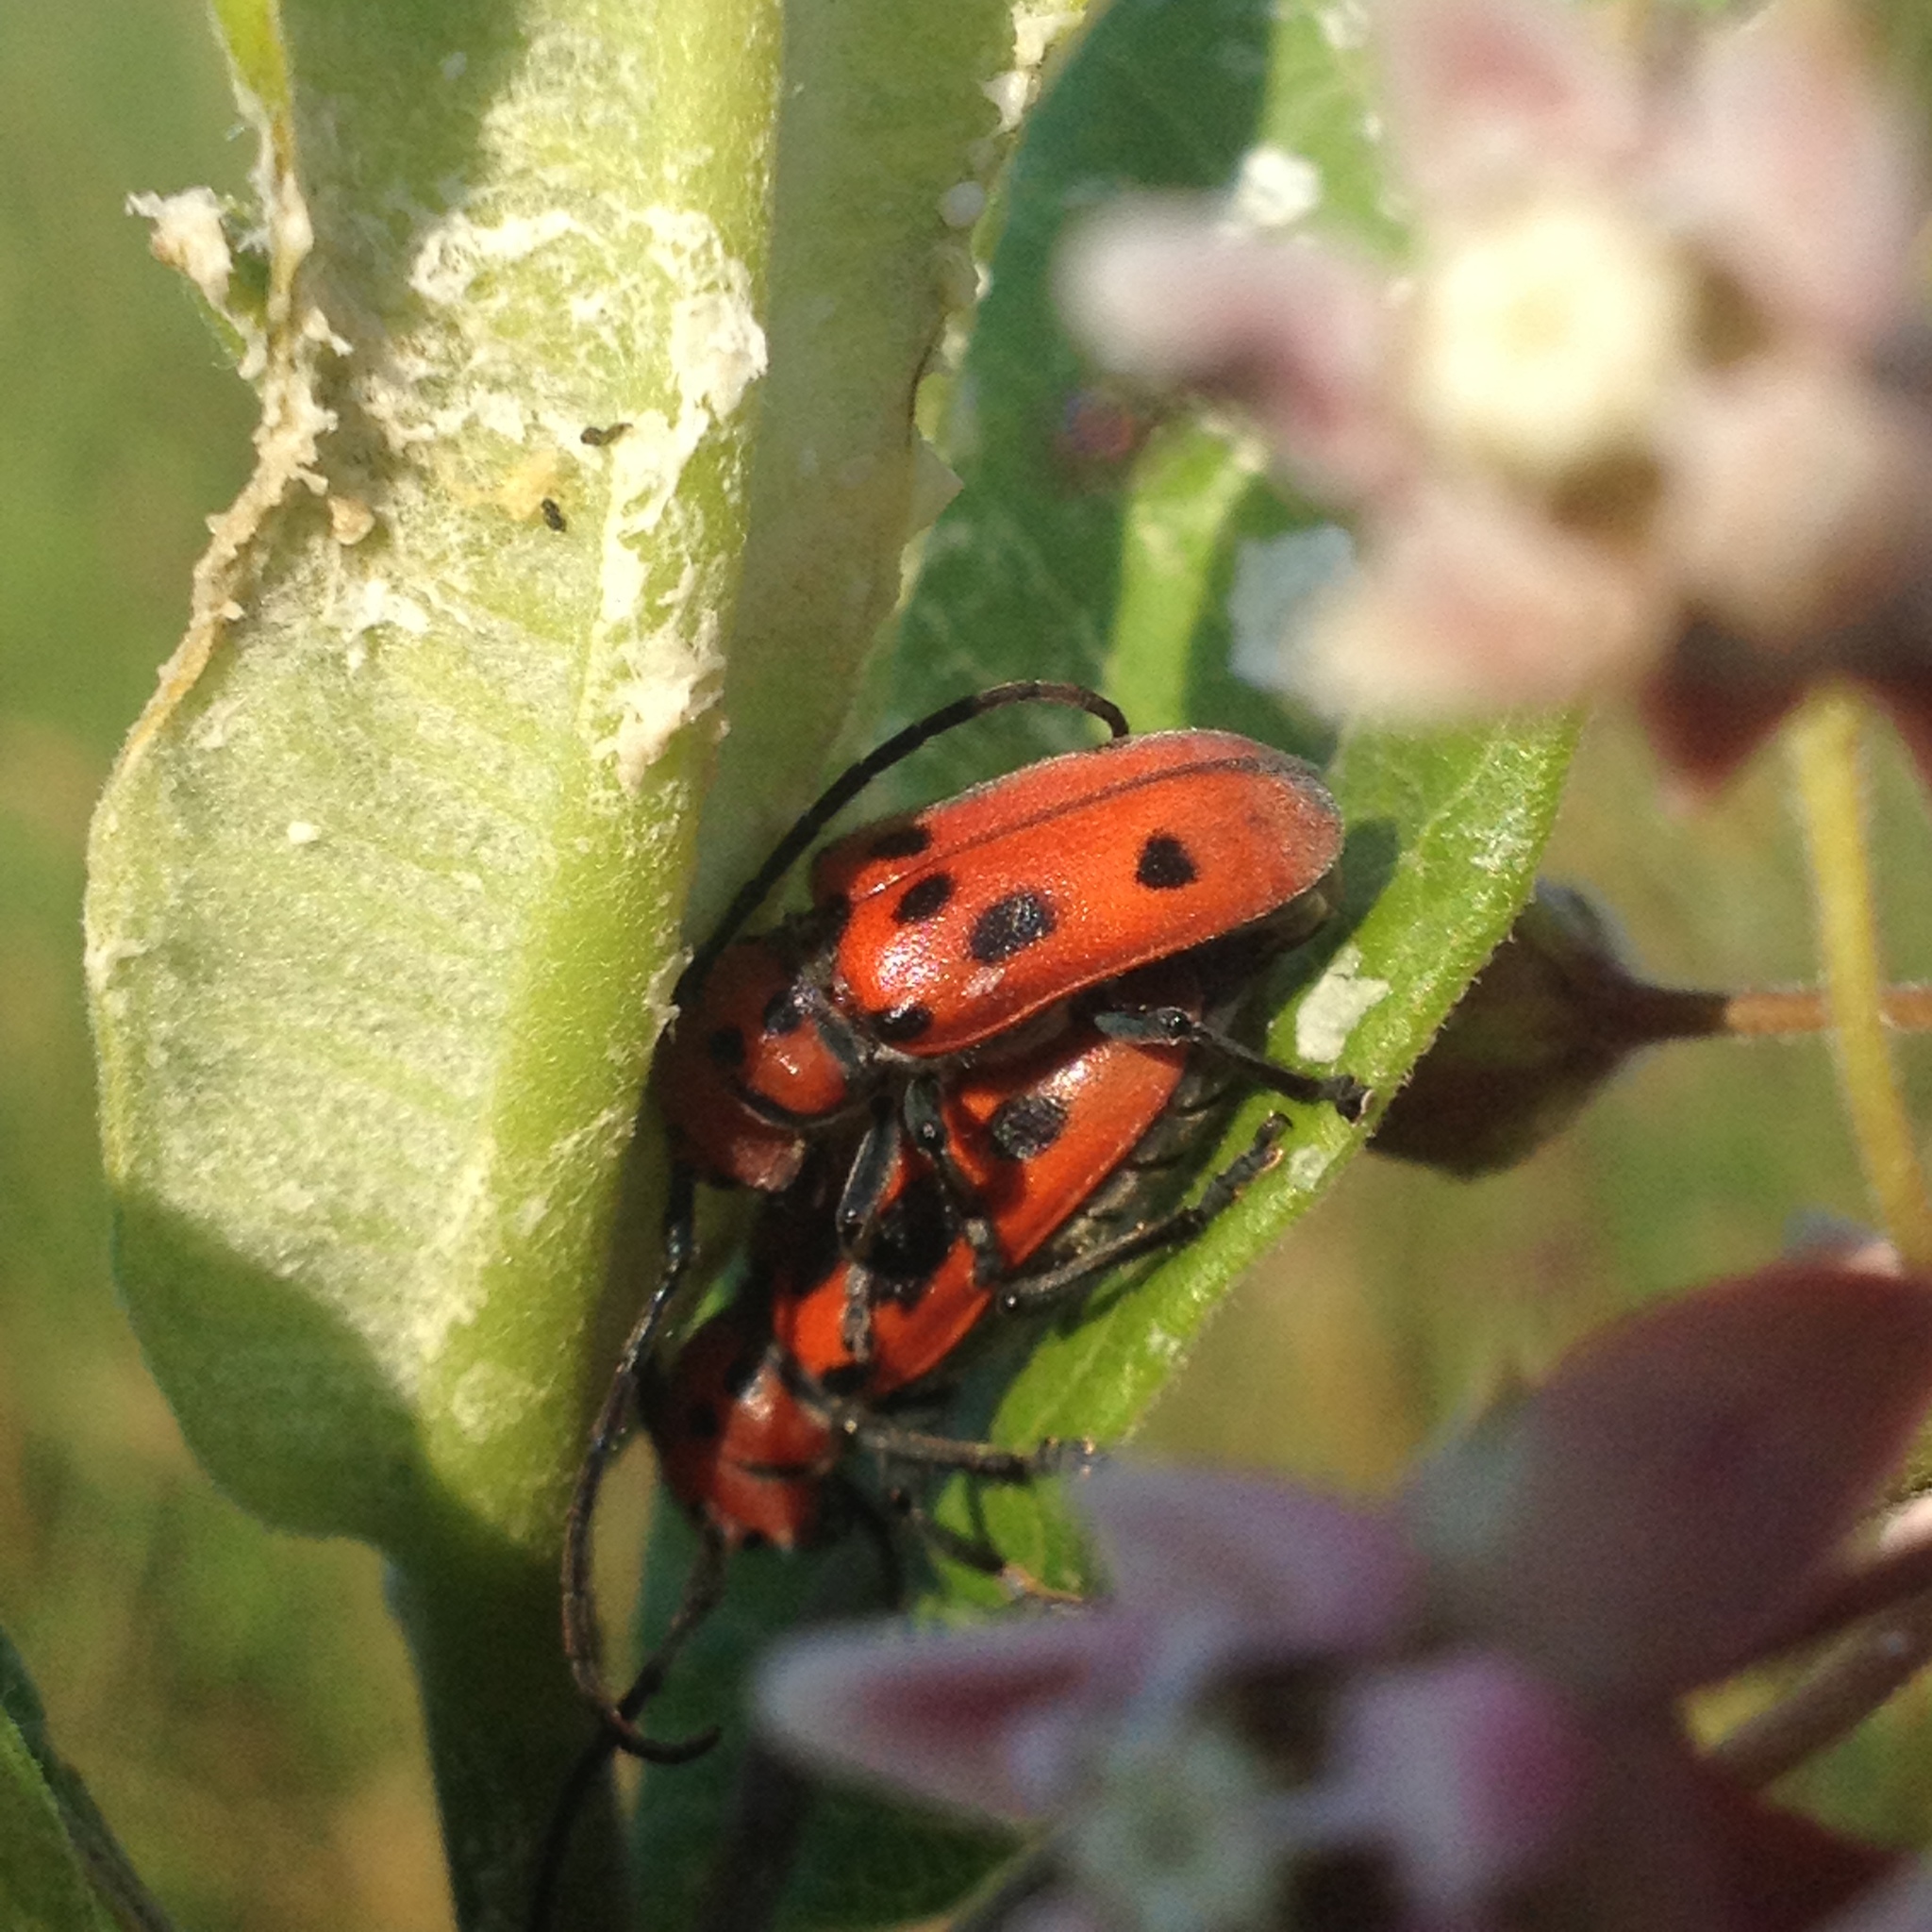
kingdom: Animalia
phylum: Arthropoda
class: Insecta
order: Coleoptera
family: Cerambycidae
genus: Tetraopes
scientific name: Tetraopes tetrophthalmus
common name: Red milkweed beetle
